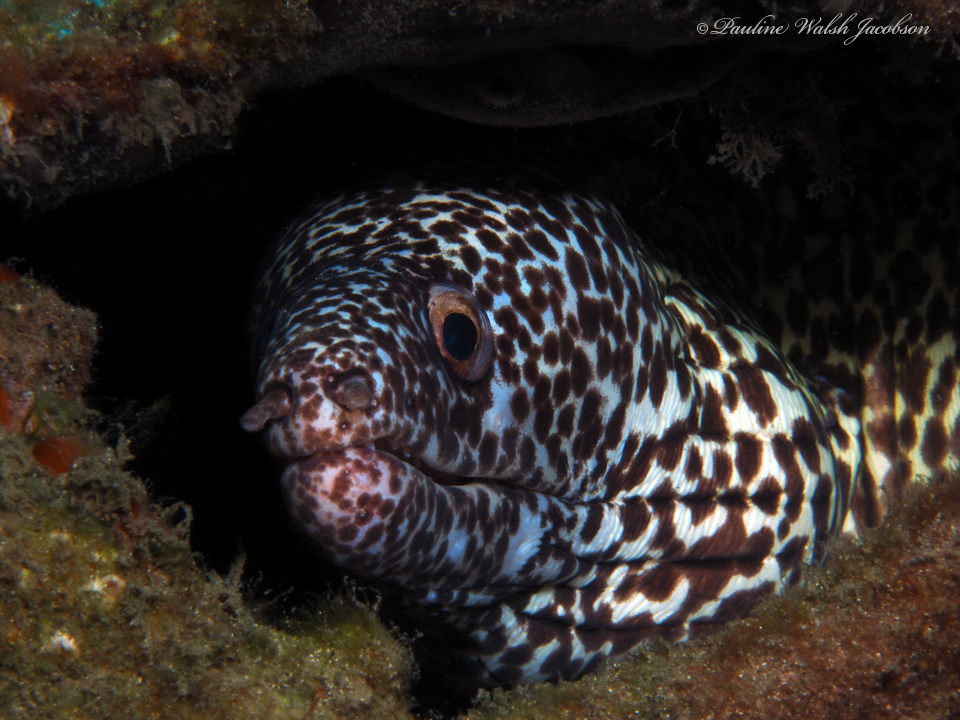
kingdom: Animalia
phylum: Chordata
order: Anguilliformes
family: Muraenidae
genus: Gymnothorax
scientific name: Gymnothorax moringa
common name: Spotted moray
